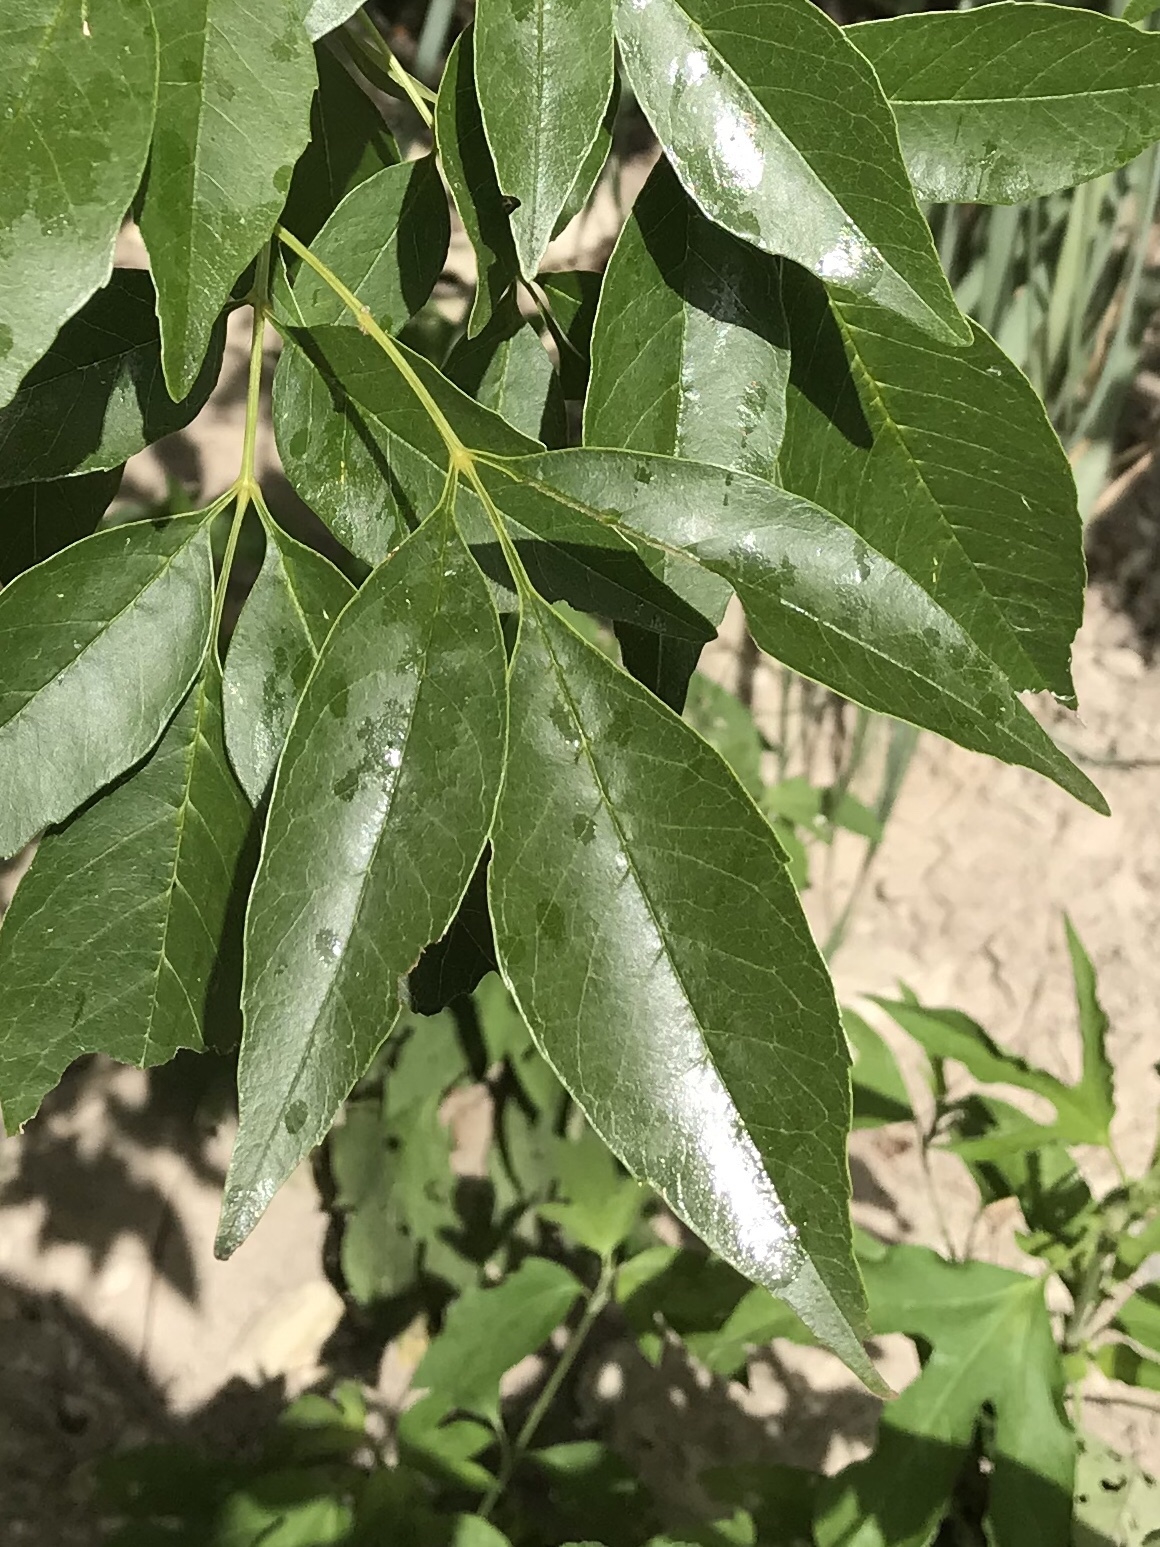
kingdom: Plantae
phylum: Tracheophyta
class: Magnoliopsida
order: Lamiales
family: Oleaceae
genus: Fraxinus
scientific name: Fraxinus berlandieriana
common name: Berlandier ash
